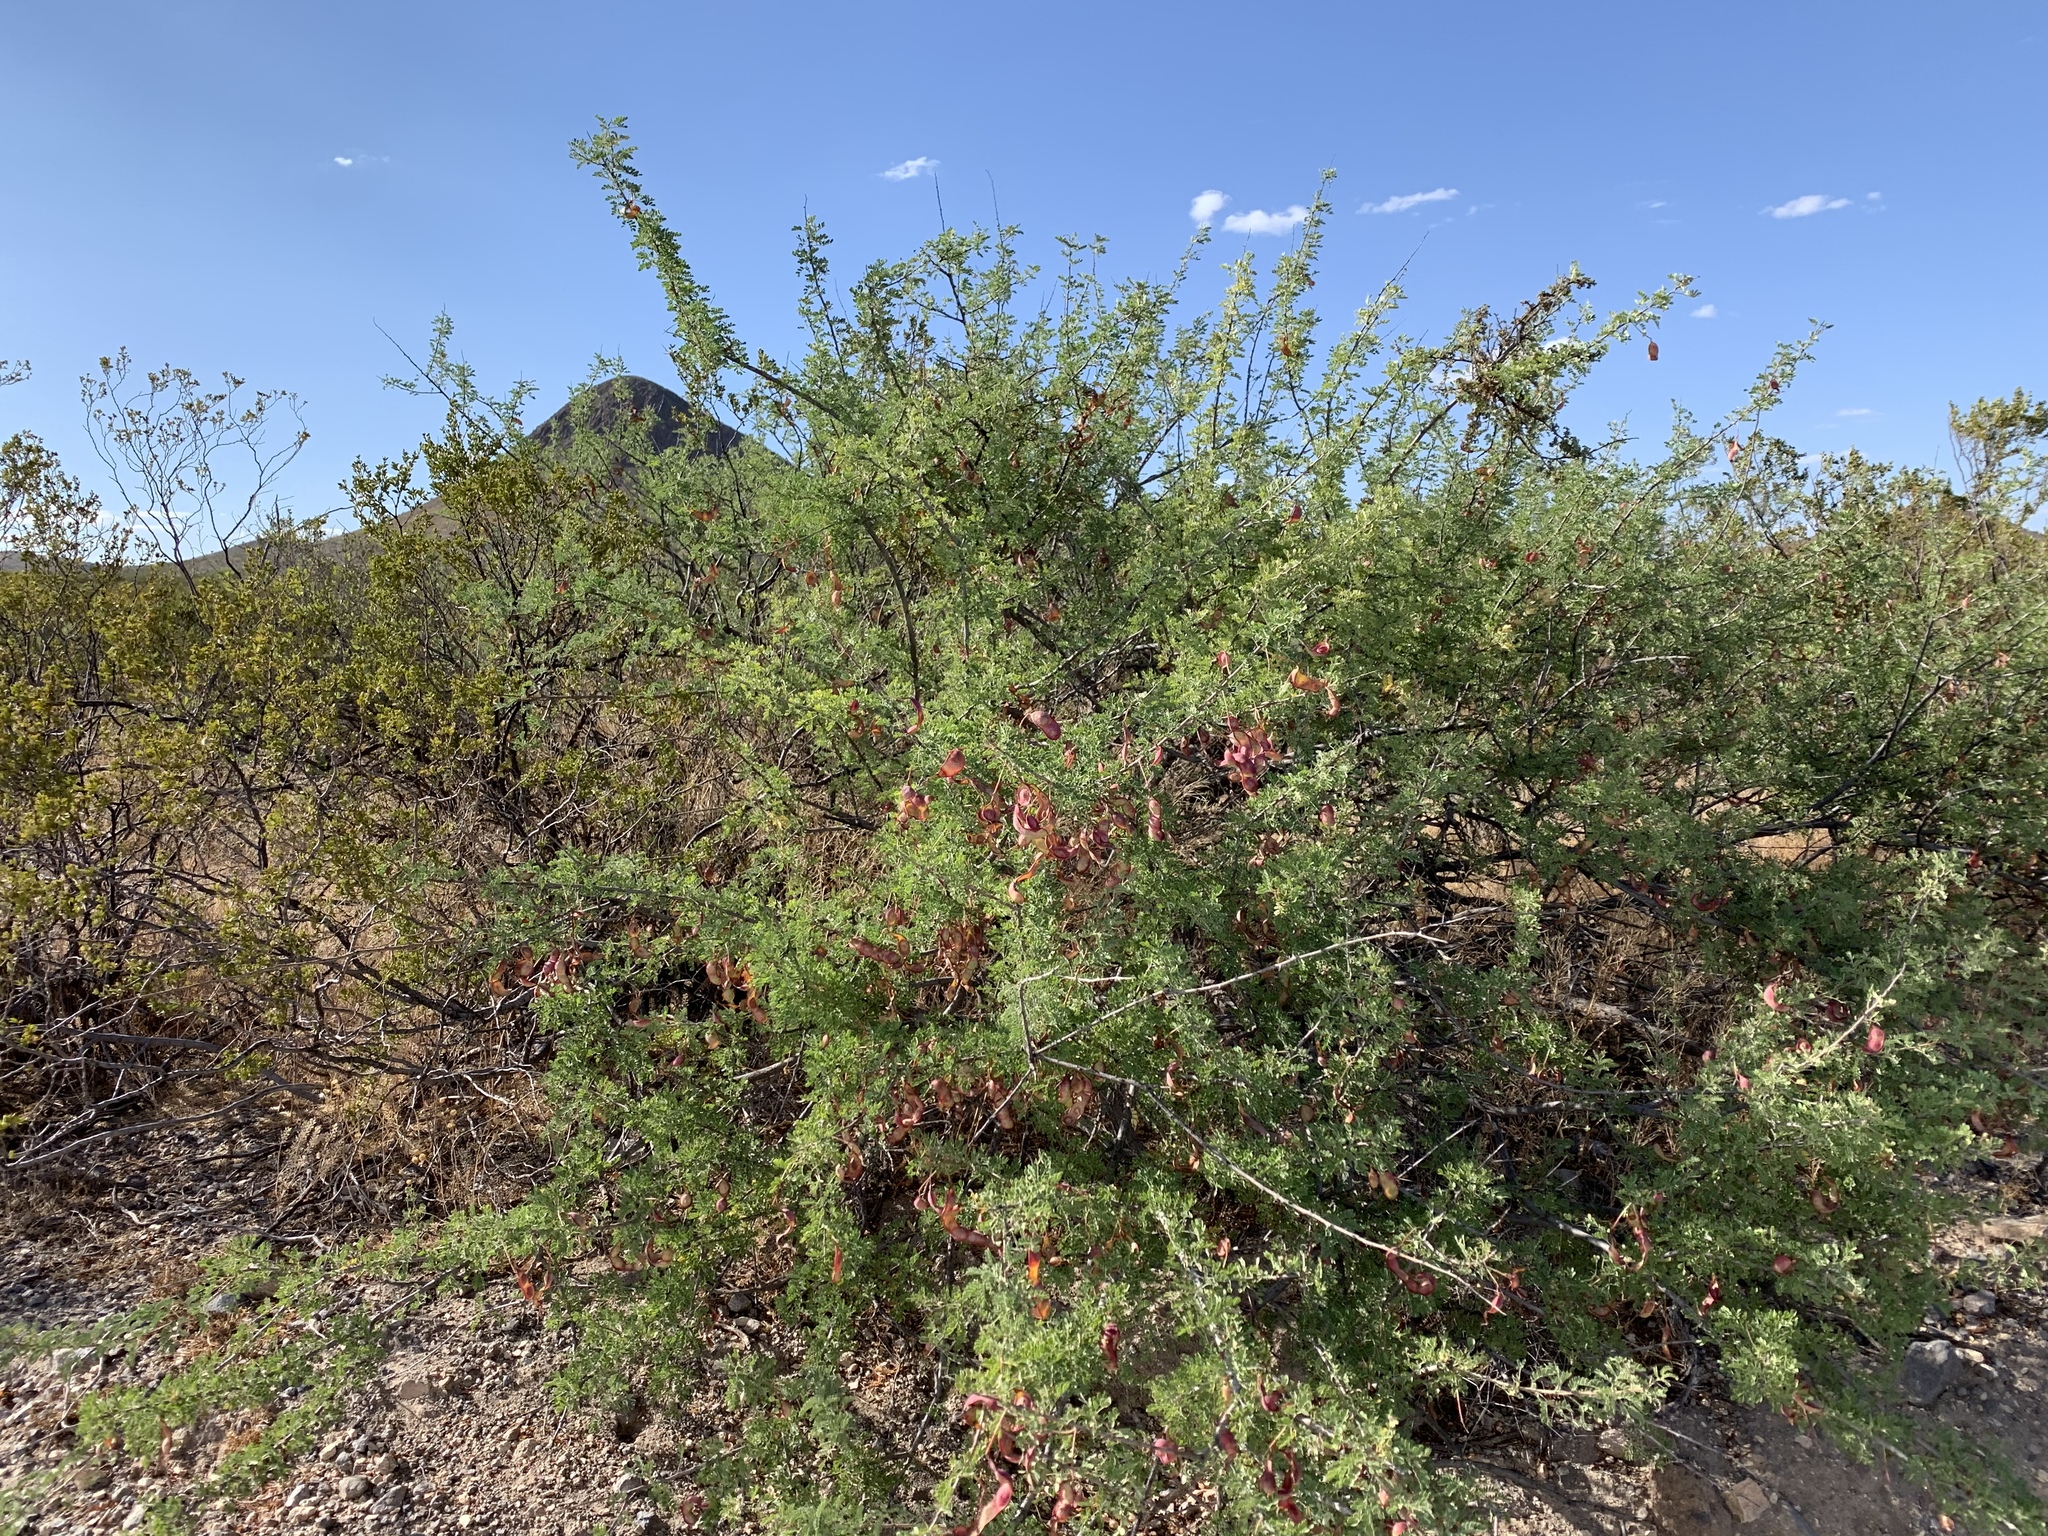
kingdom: Plantae
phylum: Tracheophyta
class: Magnoliopsida
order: Fabales
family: Fabaceae
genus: Senegalia
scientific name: Senegalia greggii
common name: Texas-mimosa
